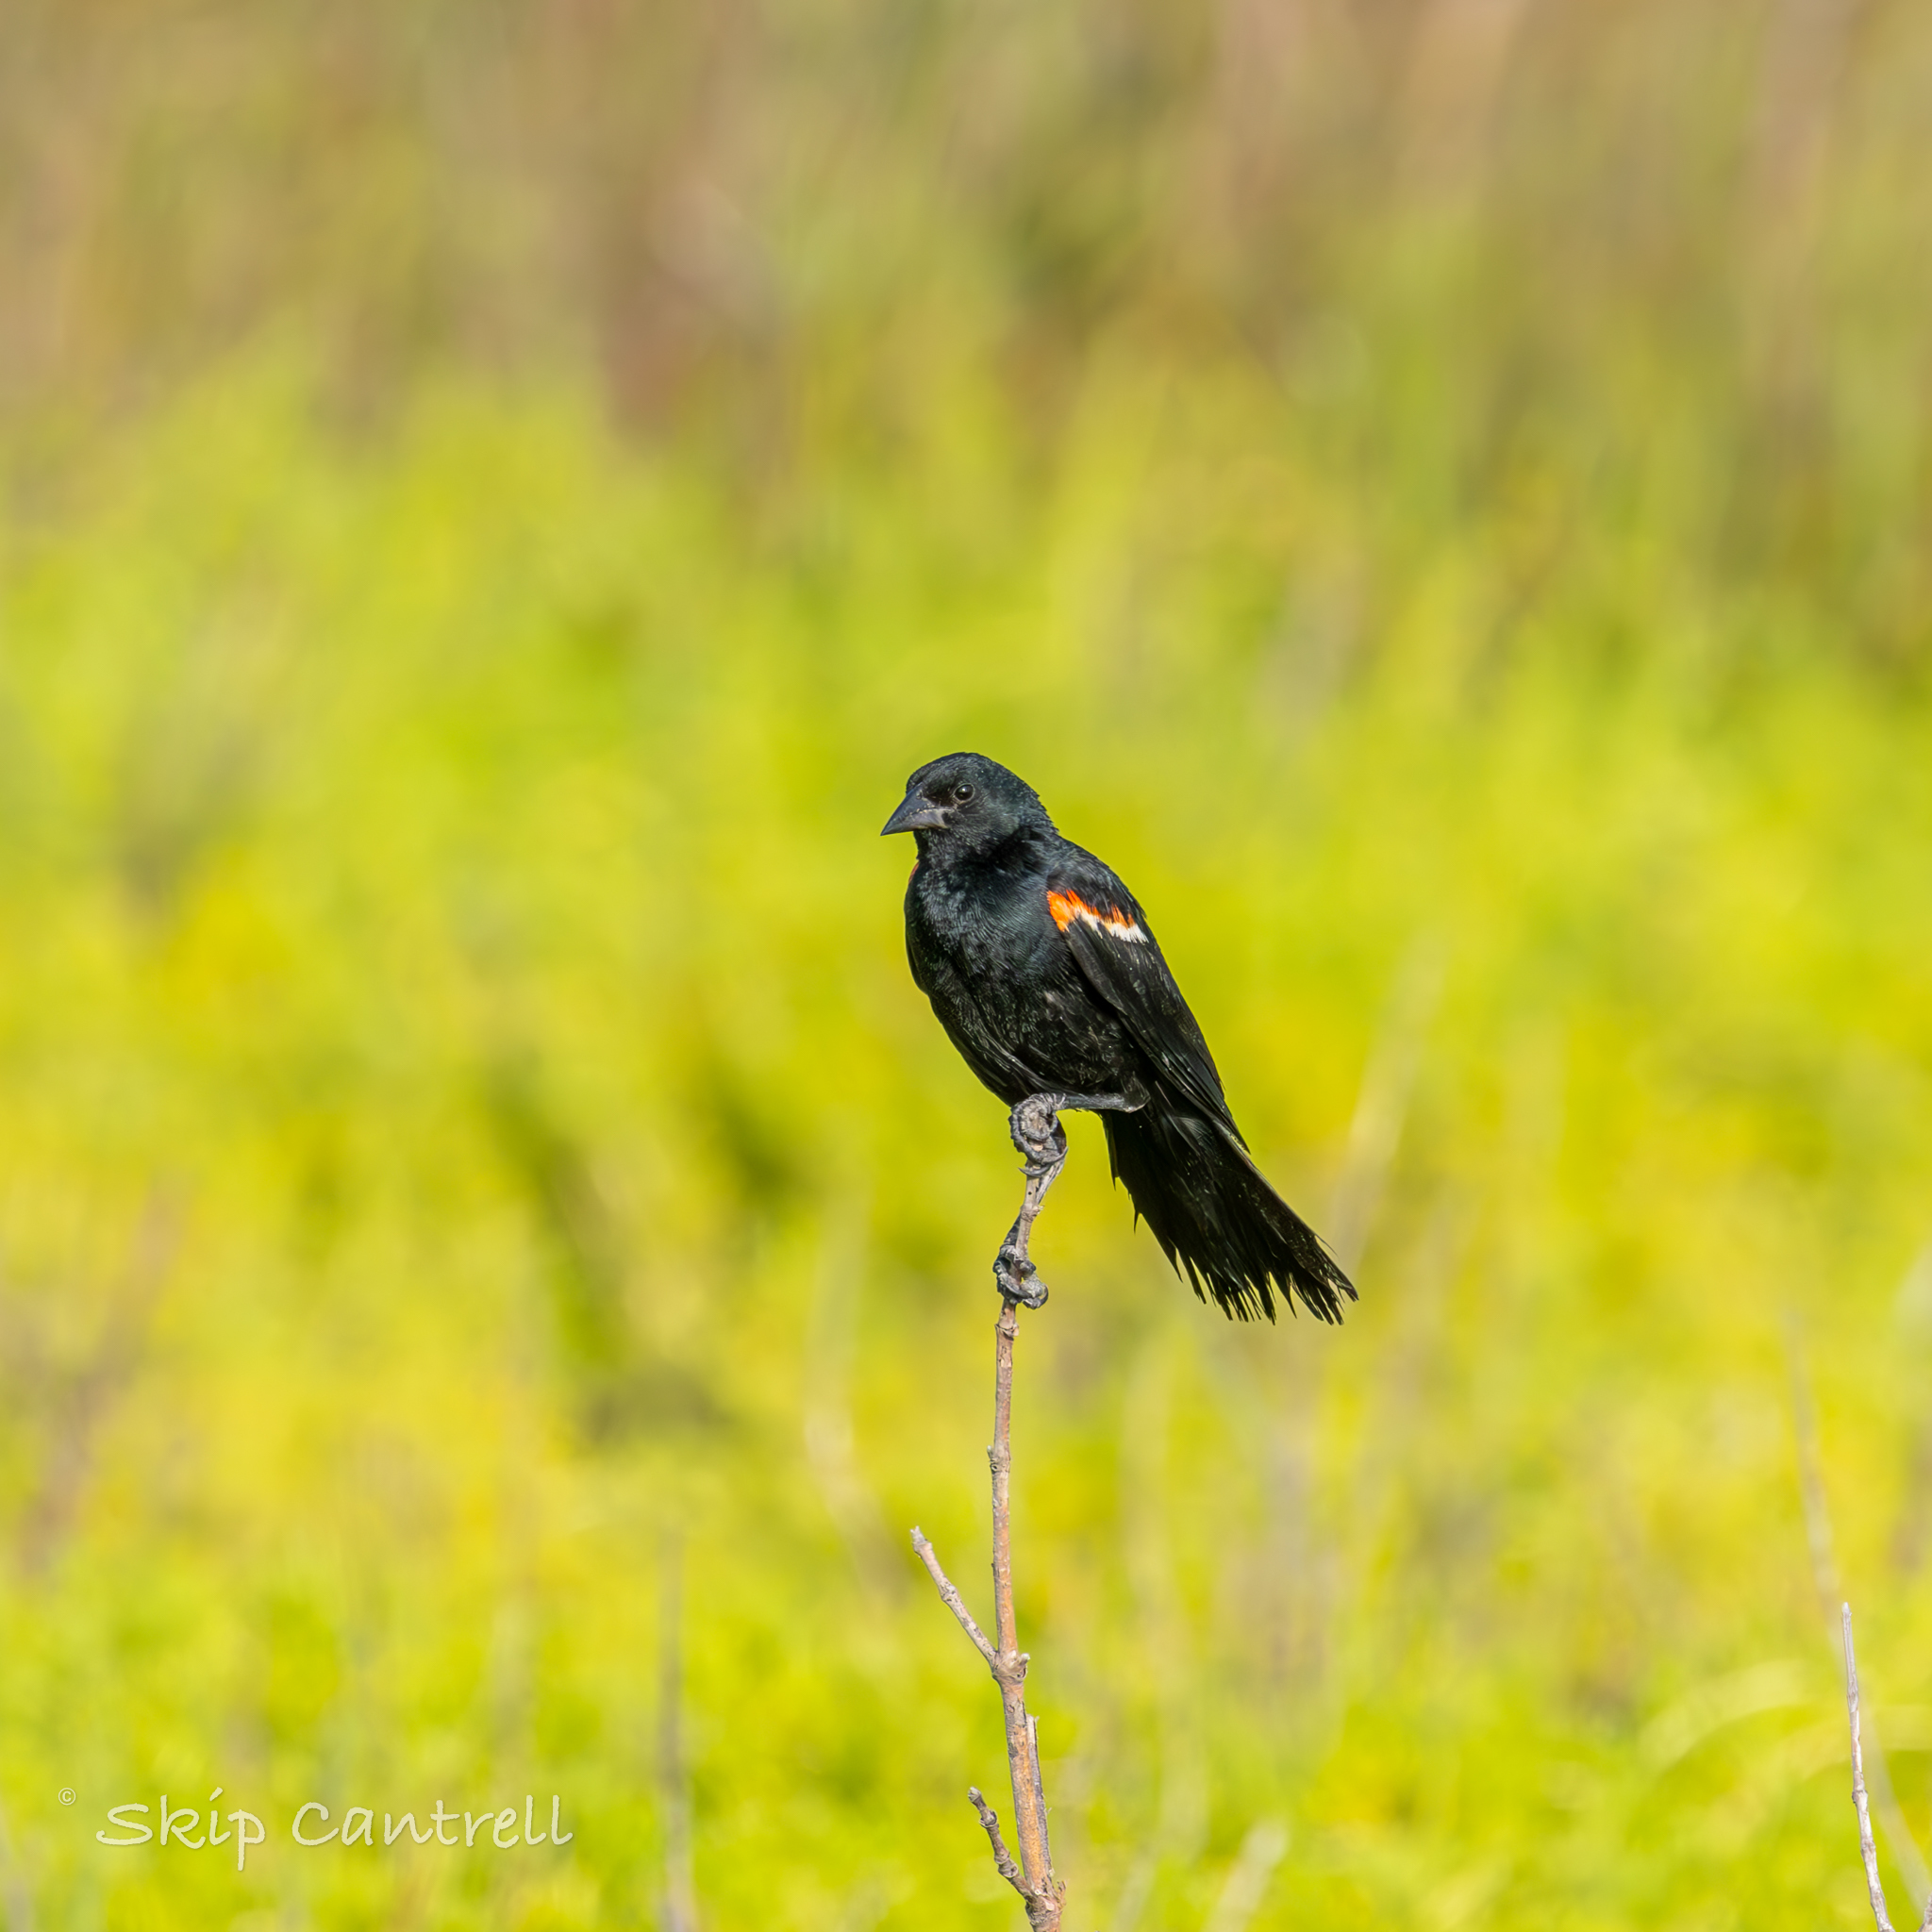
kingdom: Animalia
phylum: Chordata
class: Aves
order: Passeriformes
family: Icteridae
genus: Agelaius
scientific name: Agelaius phoeniceus
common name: Red-winged blackbird
